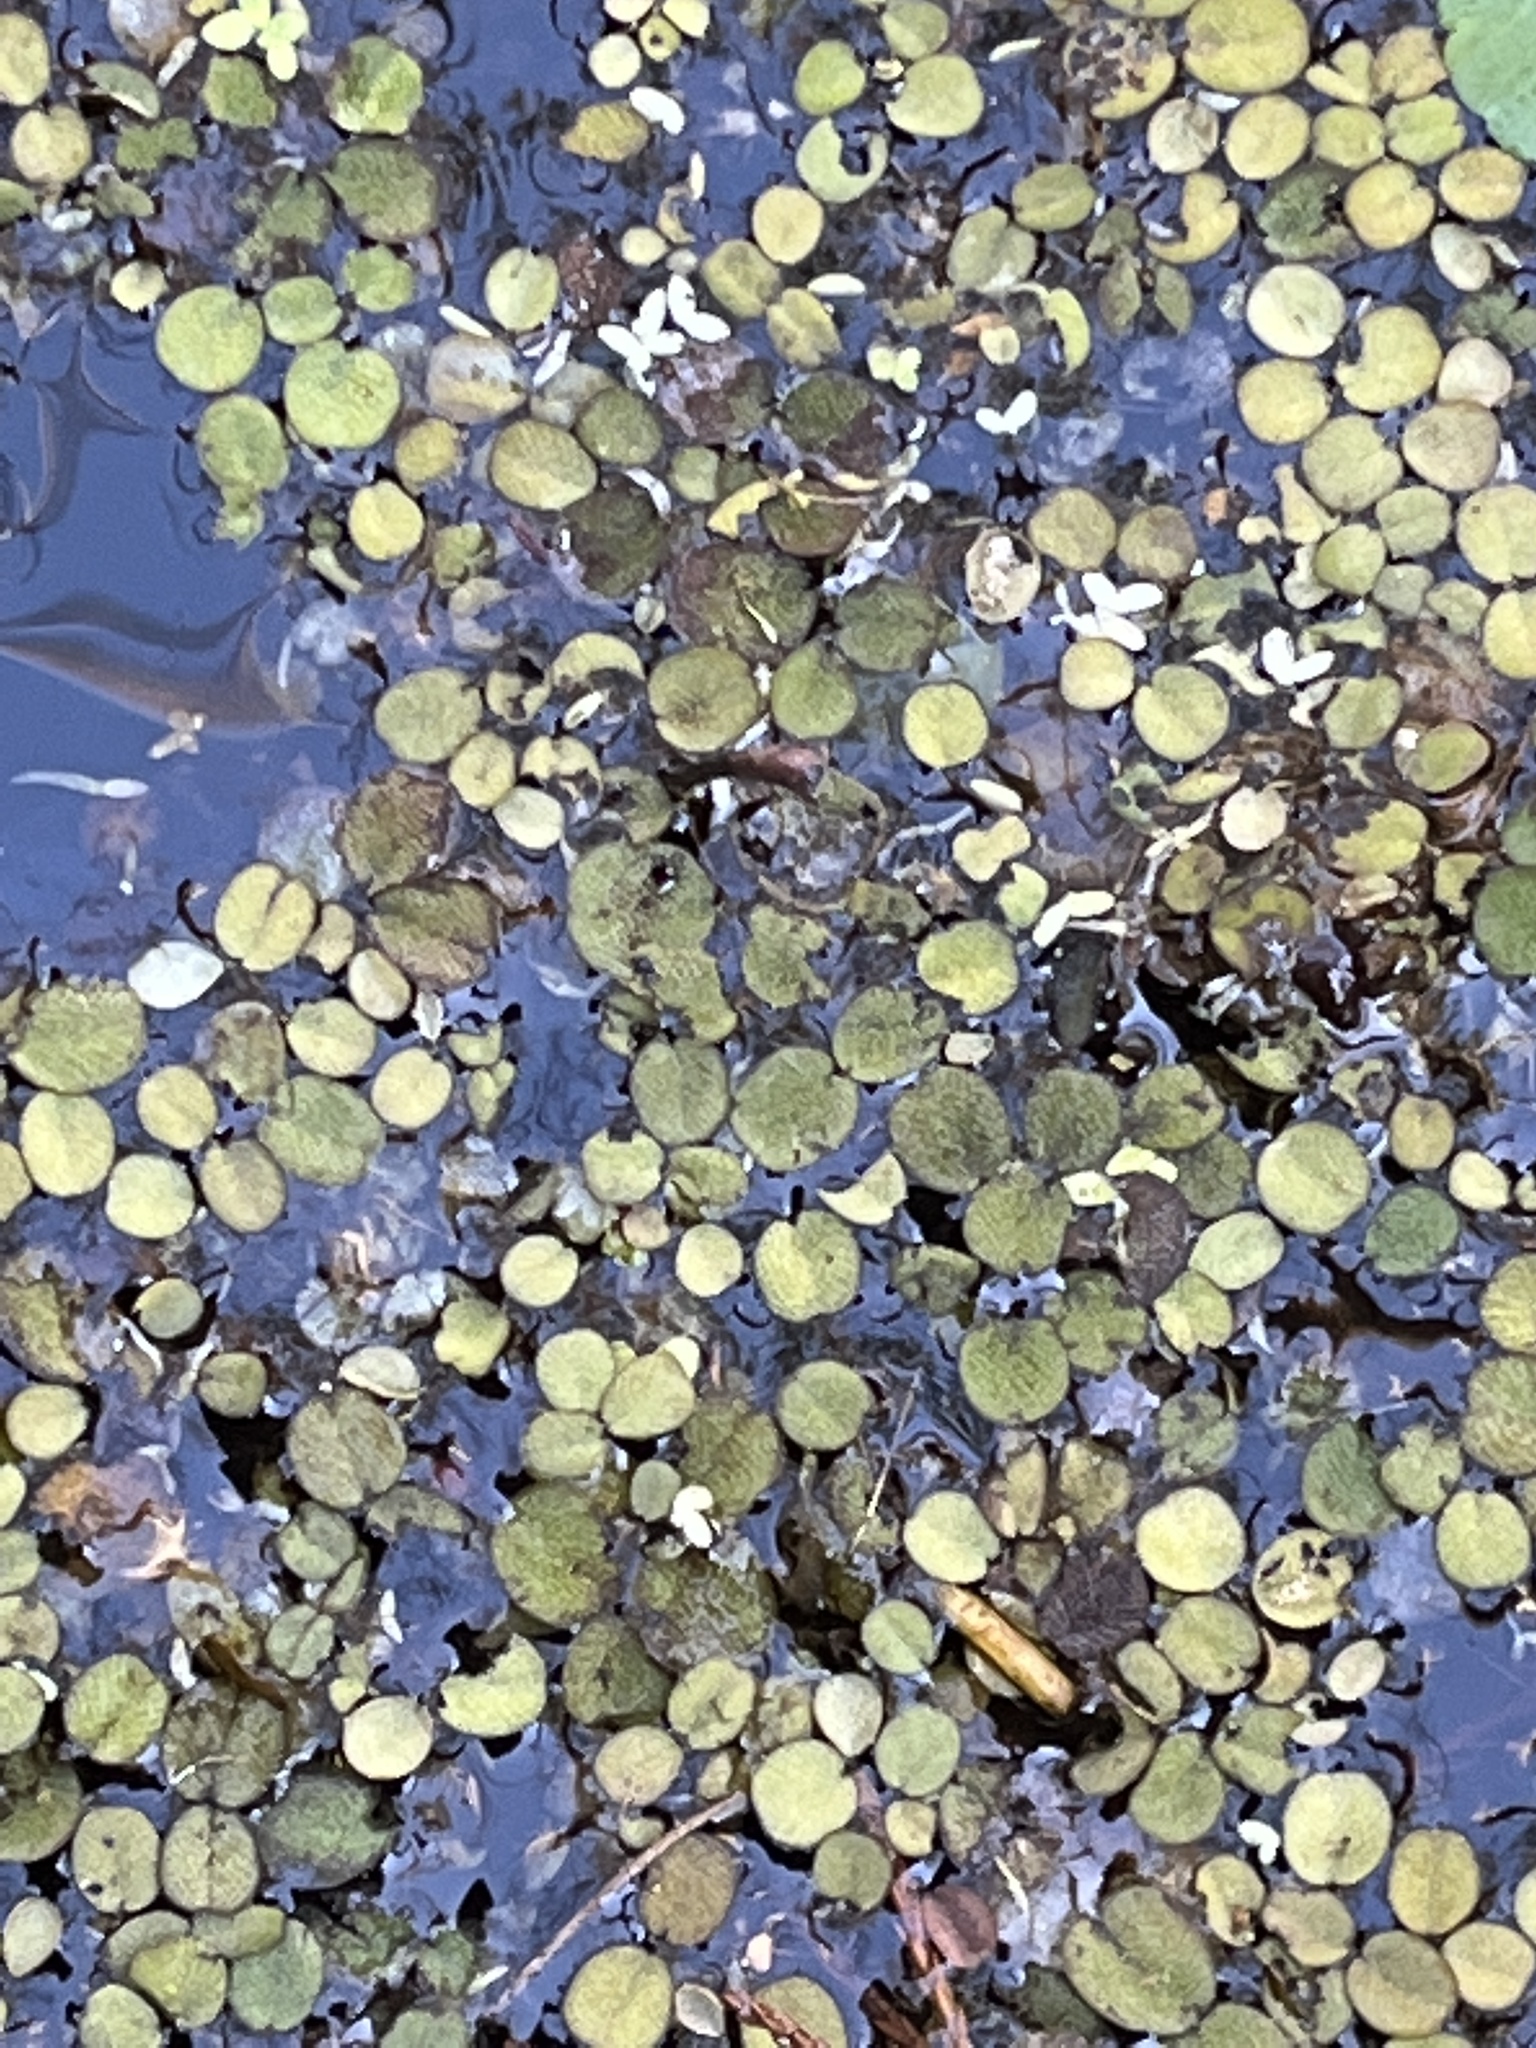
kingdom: Plantae
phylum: Tracheophyta
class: Polypodiopsida
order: Salviniales
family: Salviniaceae
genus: Salvinia
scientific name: Salvinia minima
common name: Water spangles
